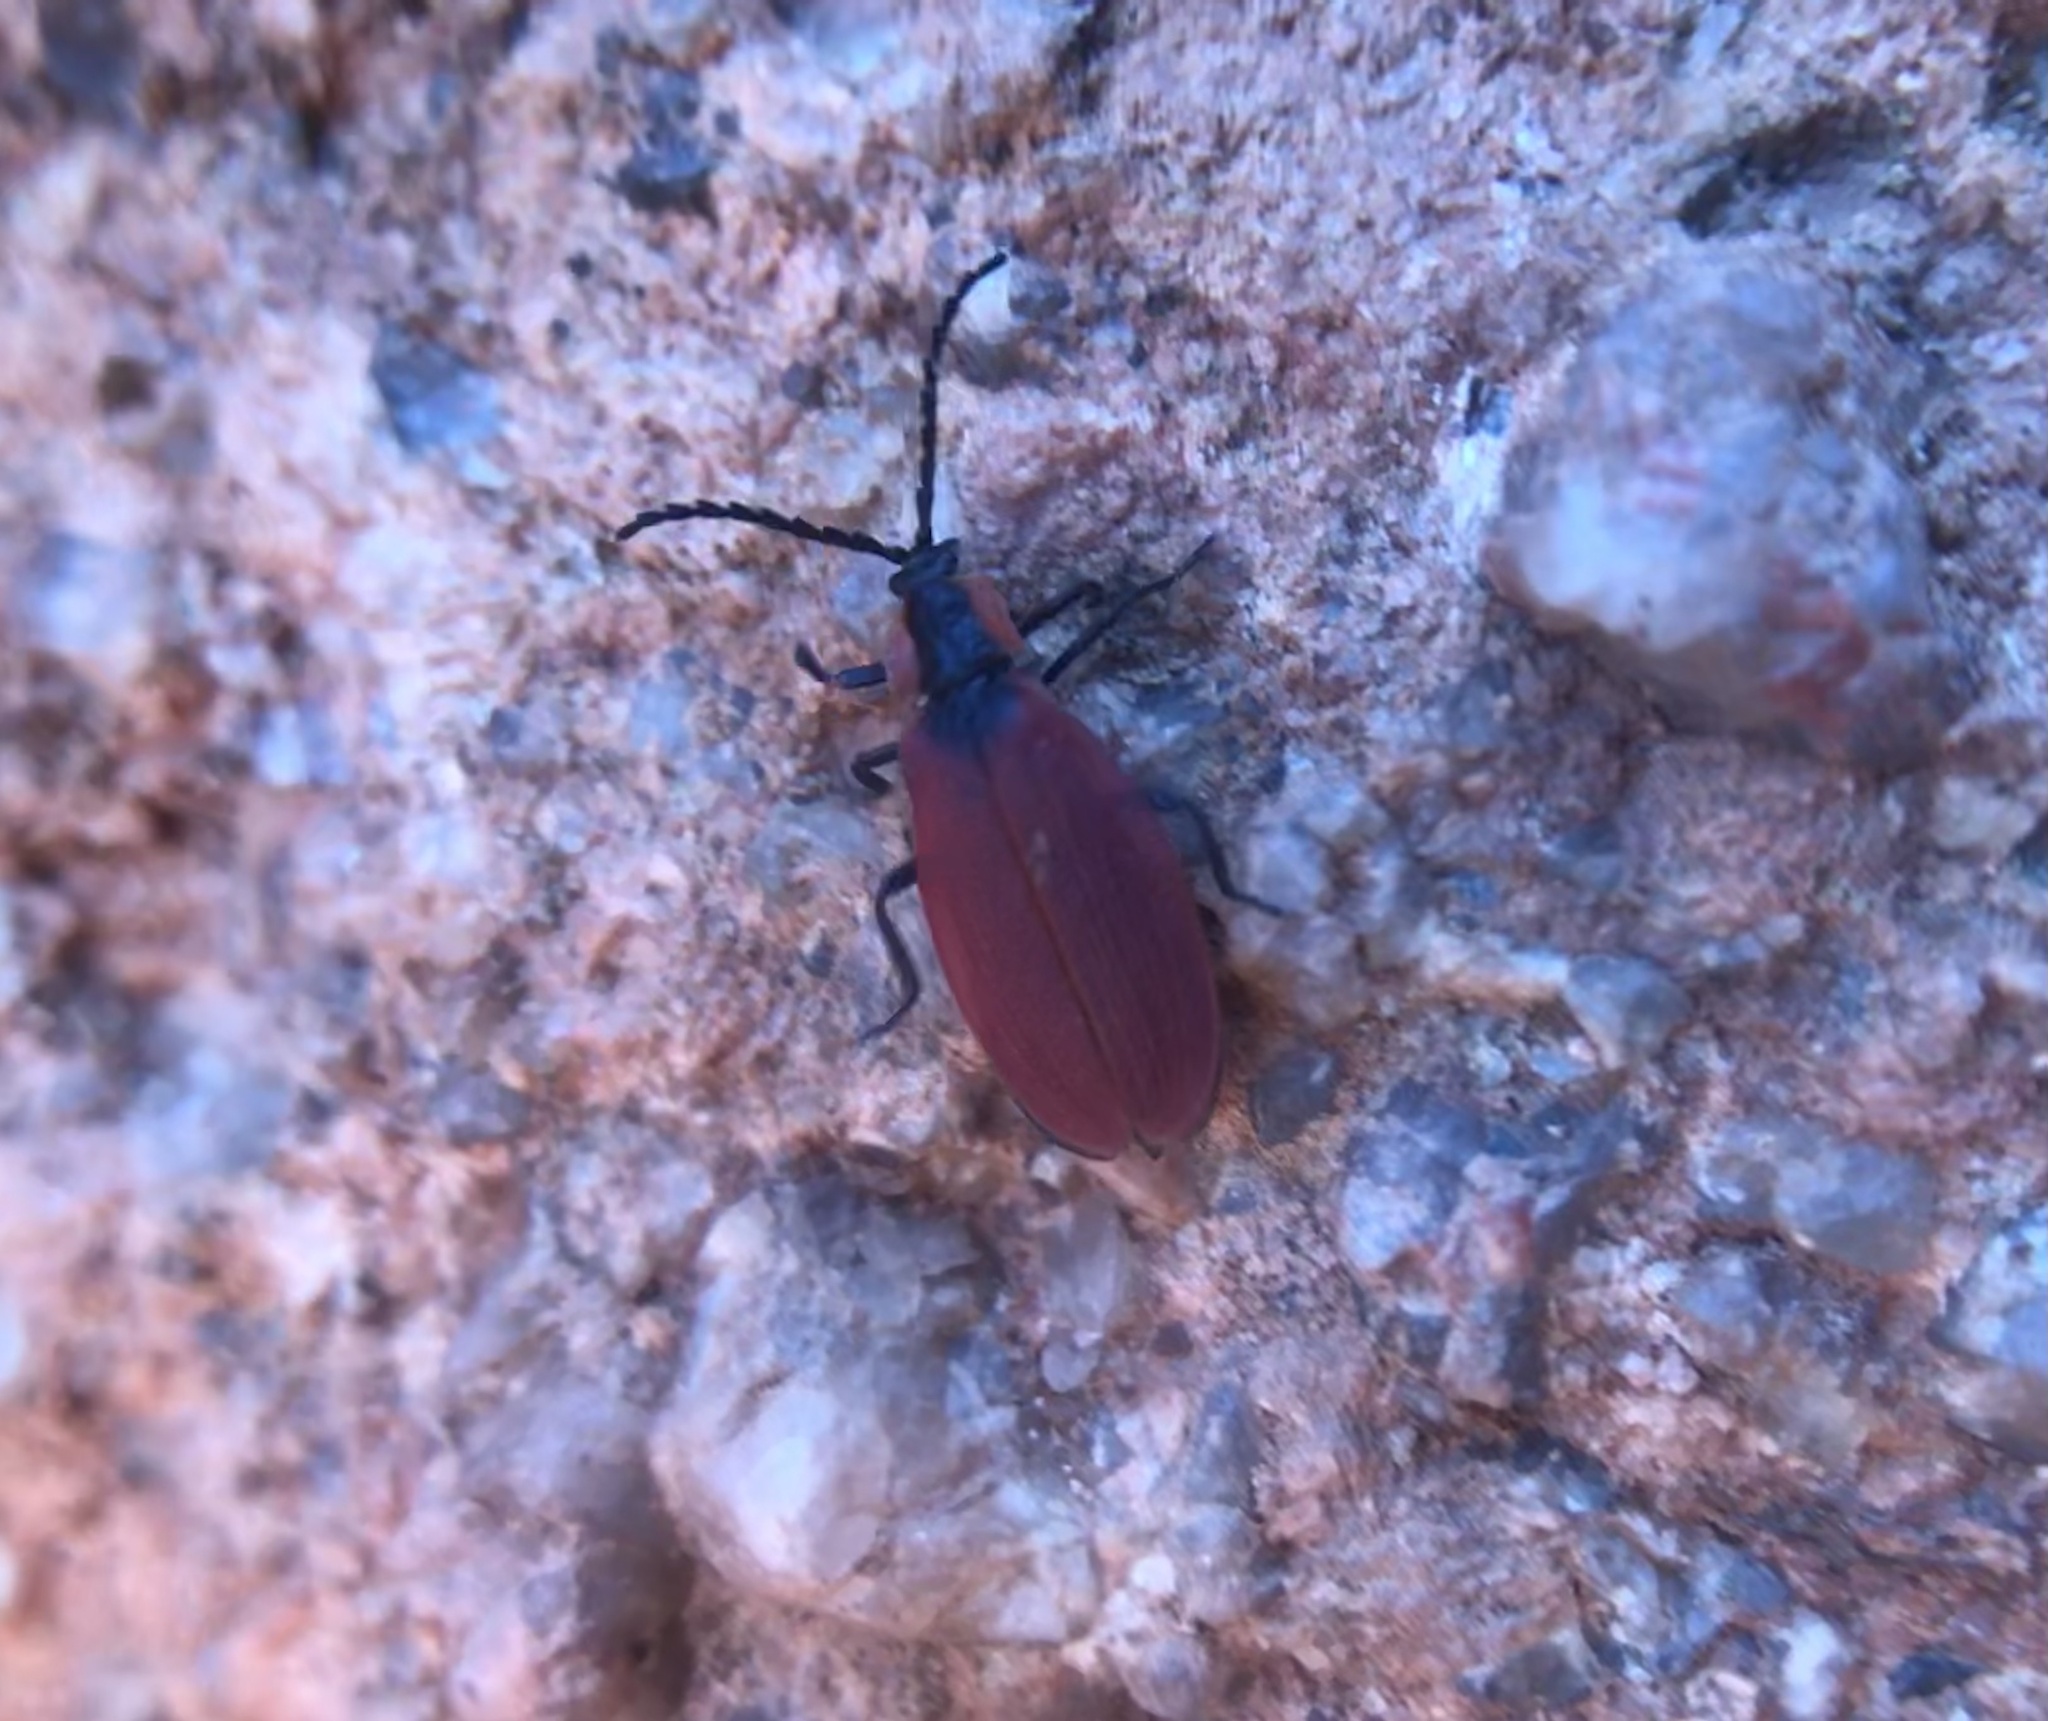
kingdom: Animalia
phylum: Arthropoda
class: Insecta
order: Coleoptera
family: Lycidae
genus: Lycus
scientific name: Lycus sanguinipennis
